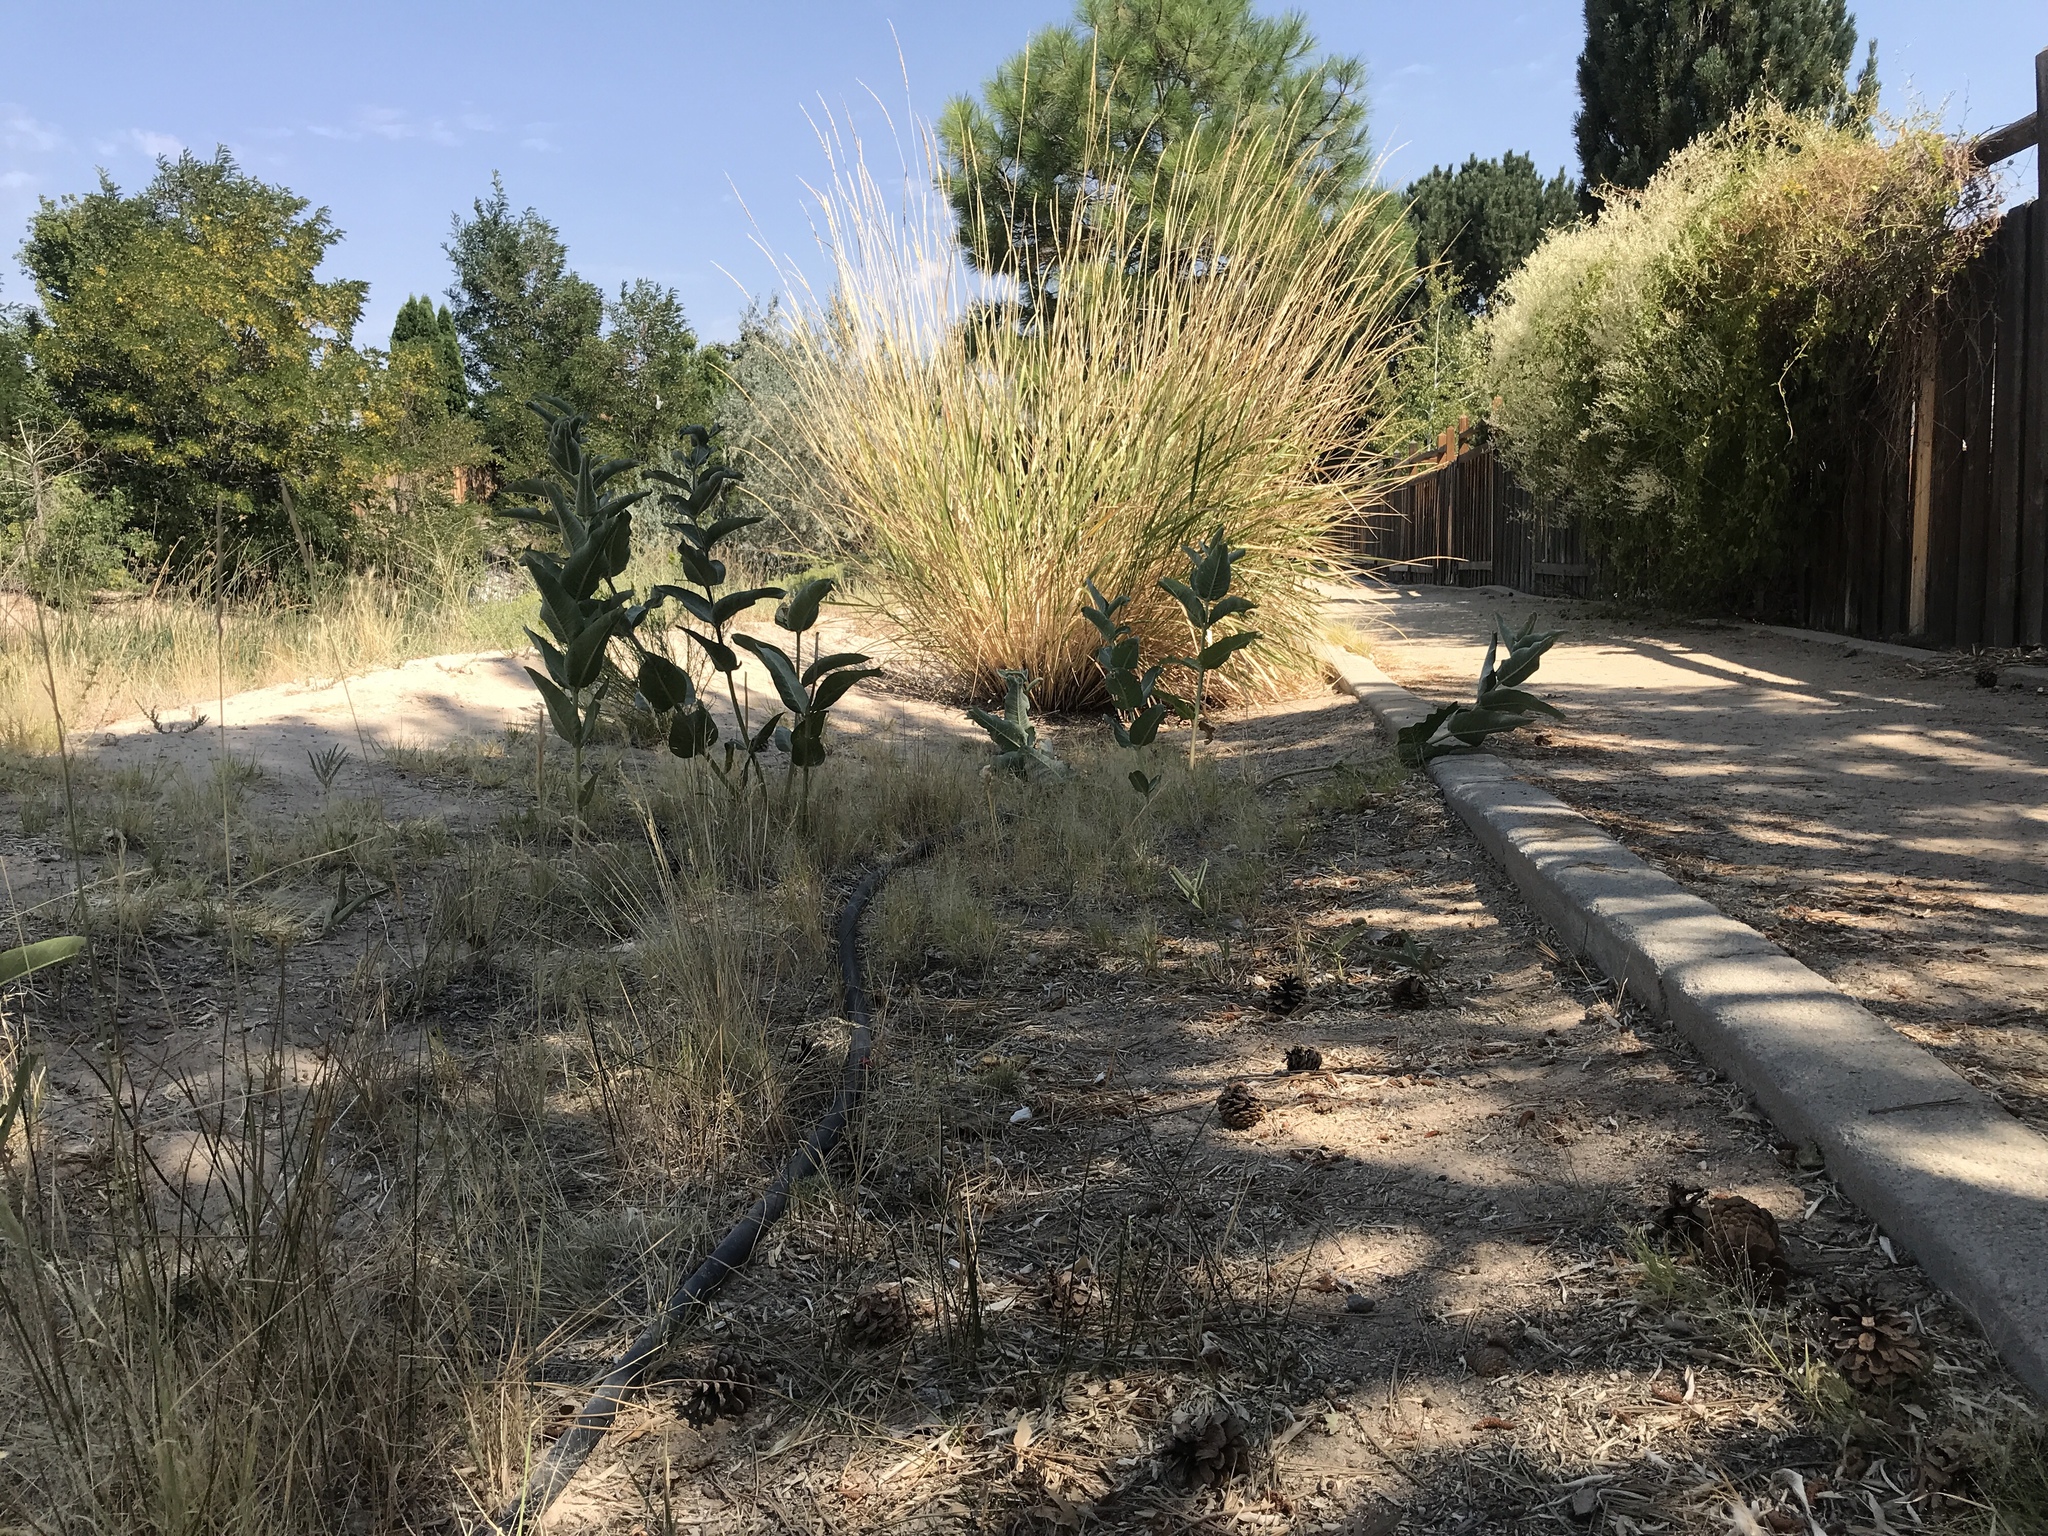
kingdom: Plantae
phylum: Tracheophyta
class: Magnoliopsida
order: Gentianales
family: Apocynaceae
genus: Asclepias
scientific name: Asclepias speciosa
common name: Showy milkweed
